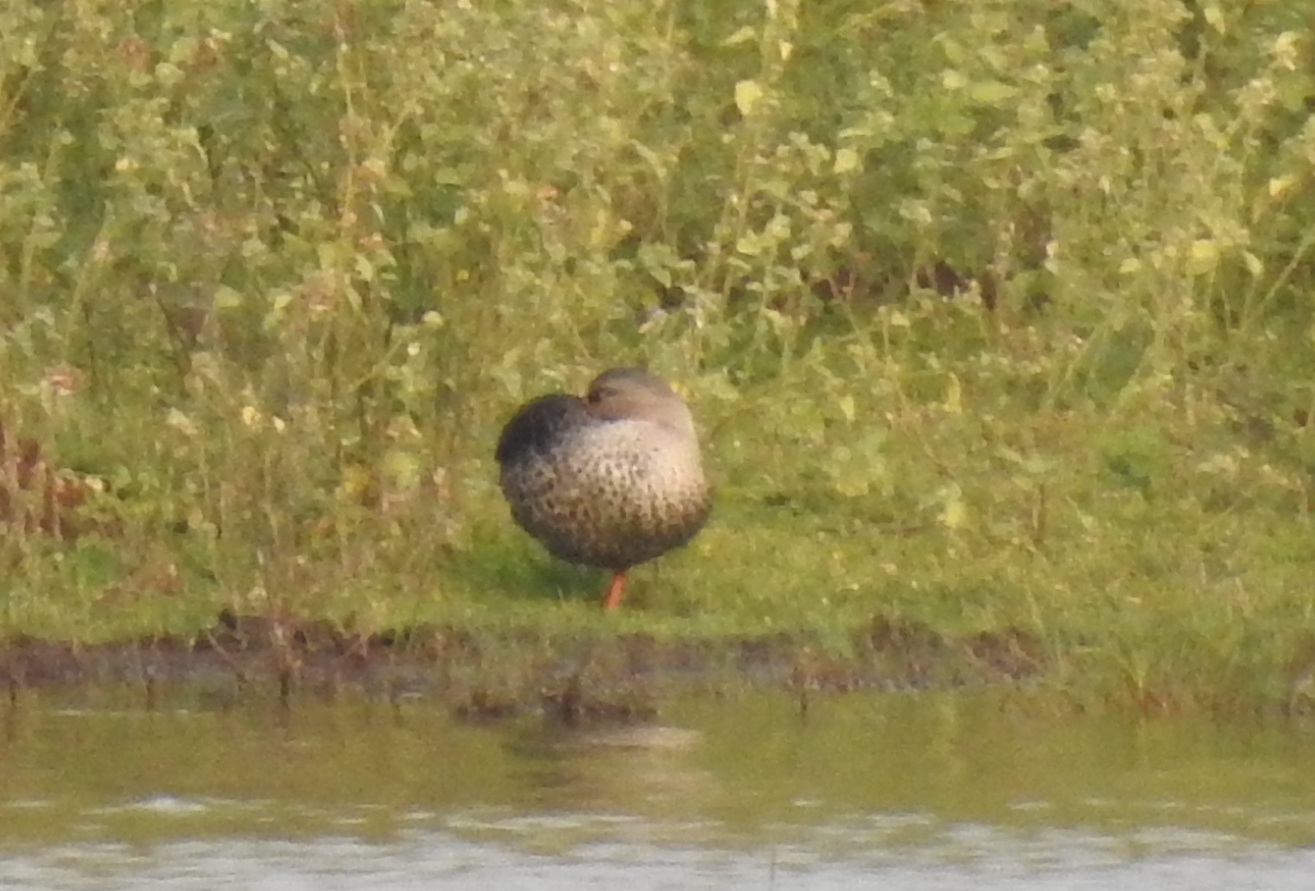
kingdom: Animalia
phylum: Chordata
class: Aves
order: Anseriformes
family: Anatidae
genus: Anas
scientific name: Anas poecilorhyncha
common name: Indian spot-billed duck
